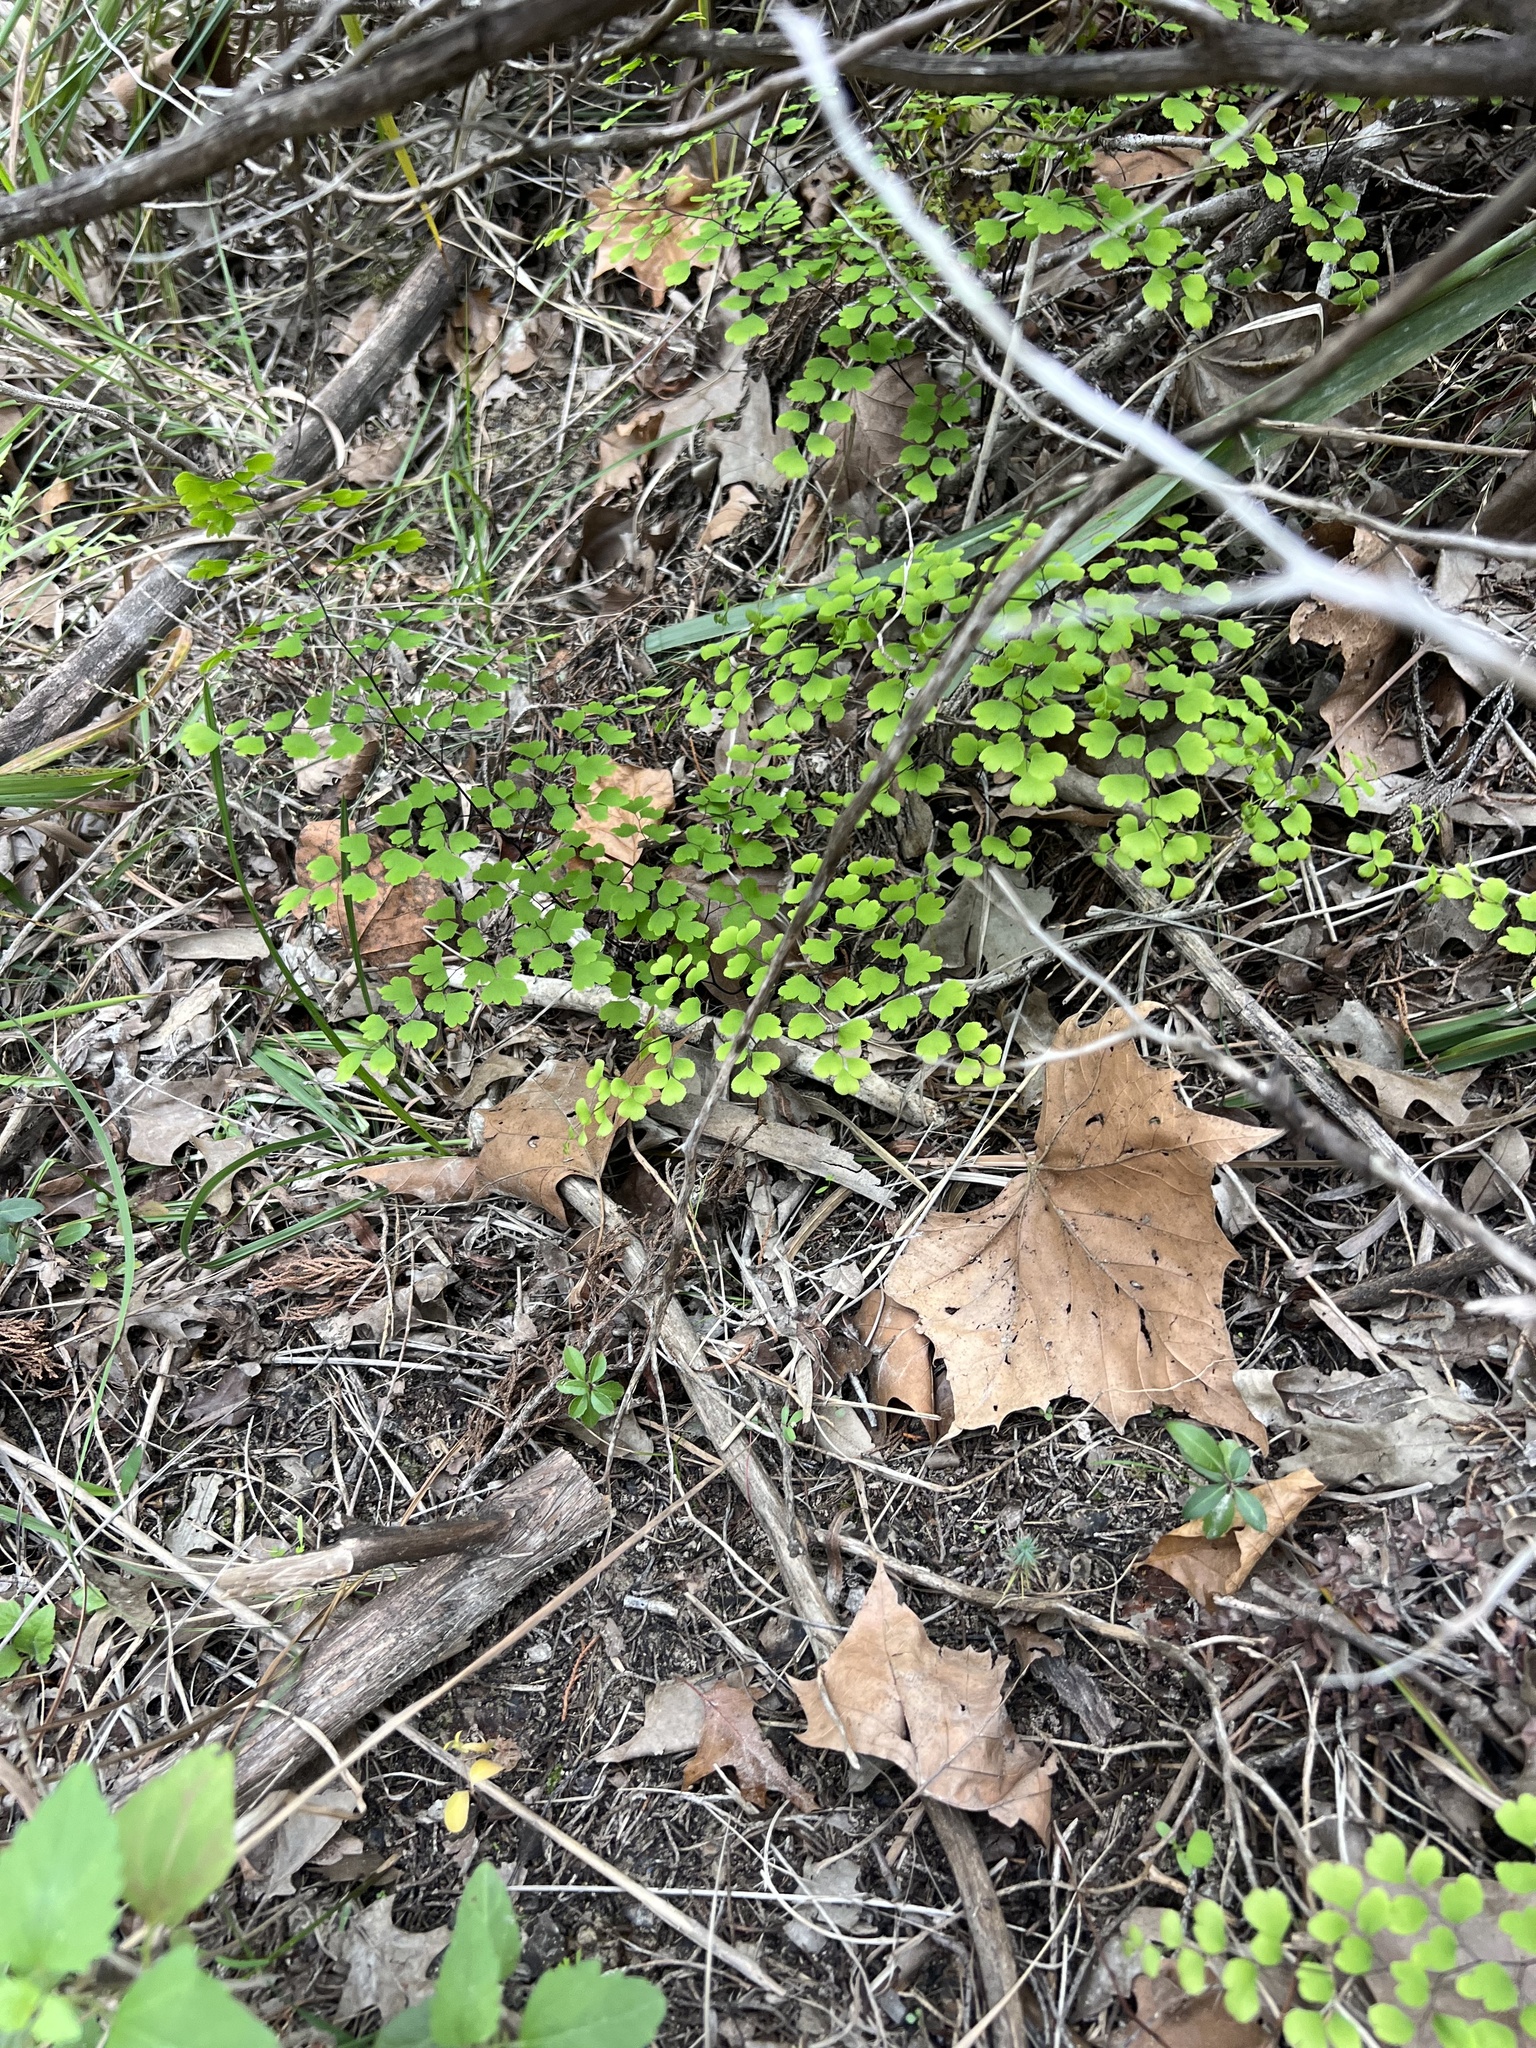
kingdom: Plantae
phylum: Tracheophyta
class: Polypodiopsida
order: Polypodiales
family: Pteridaceae
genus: Adiantum
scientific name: Adiantum capillus-veneris
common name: Maidenhair fern
